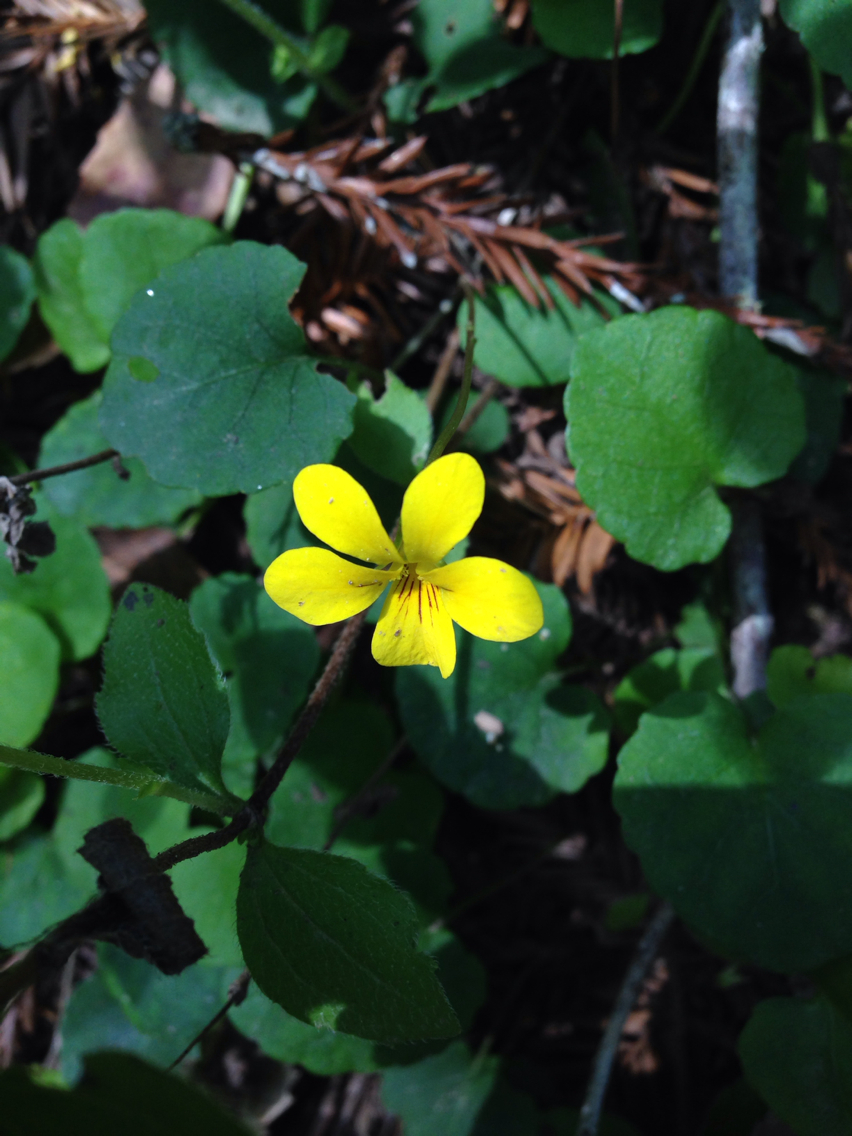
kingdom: Plantae
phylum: Tracheophyta
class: Magnoliopsida
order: Malpighiales
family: Violaceae
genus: Viola
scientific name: Viola sempervirens
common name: Evergreen violet
